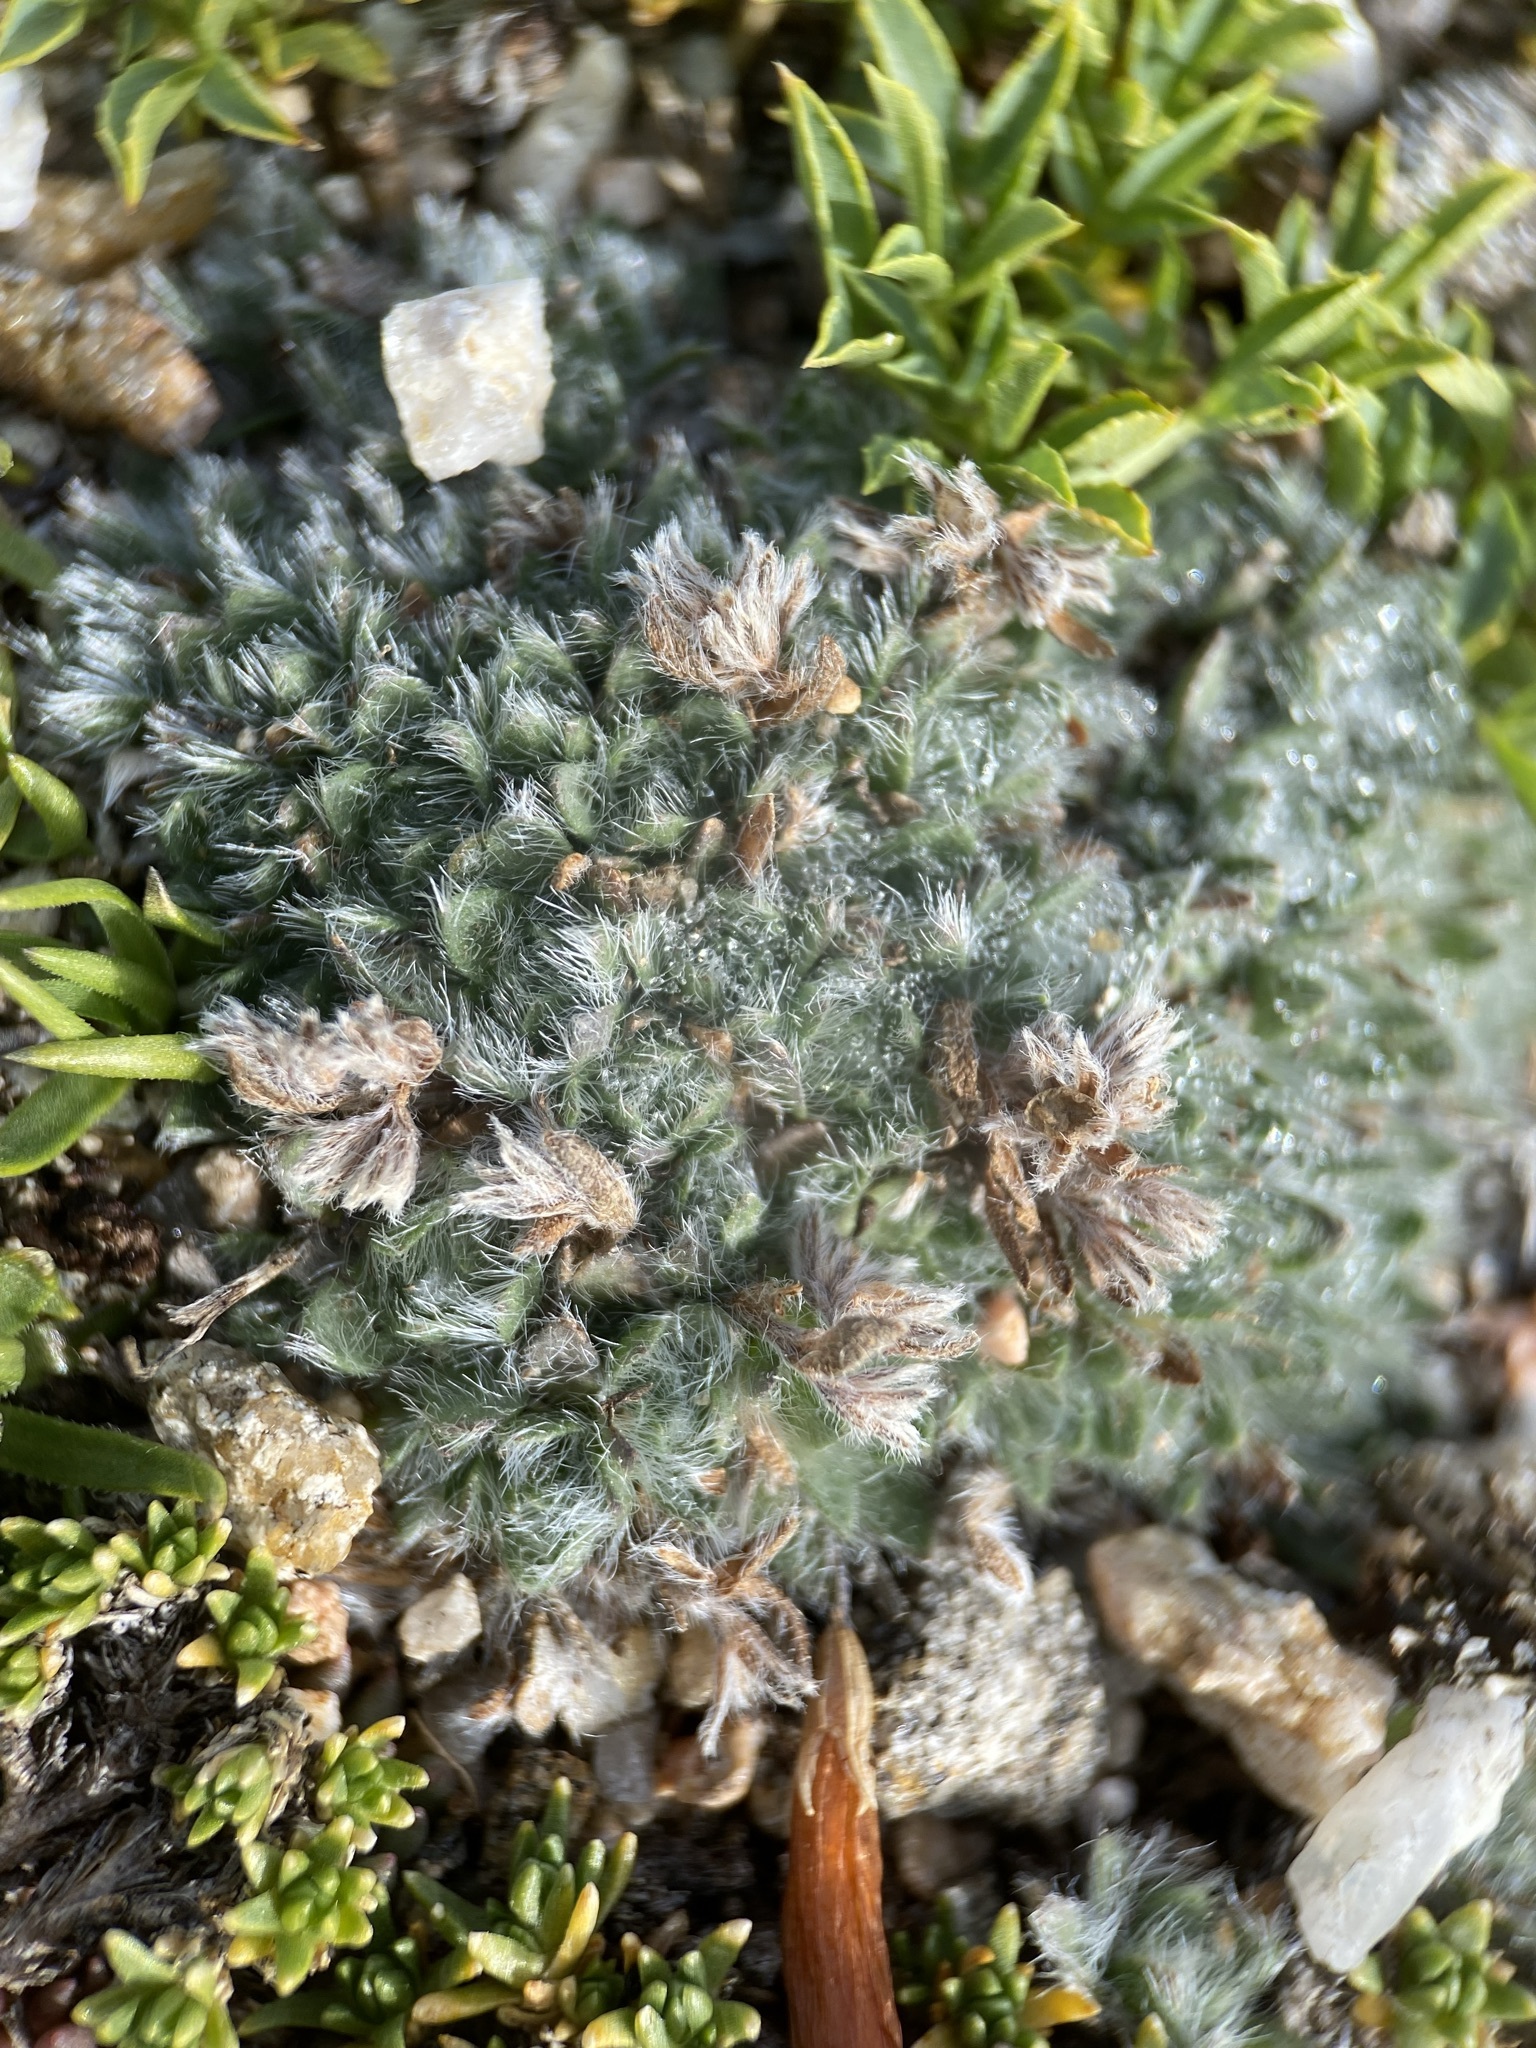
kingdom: Plantae
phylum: Tracheophyta
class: Magnoliopsida
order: Boraginales
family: Boraginaceae
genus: Eritrichium
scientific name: Eritrichium argenteum
